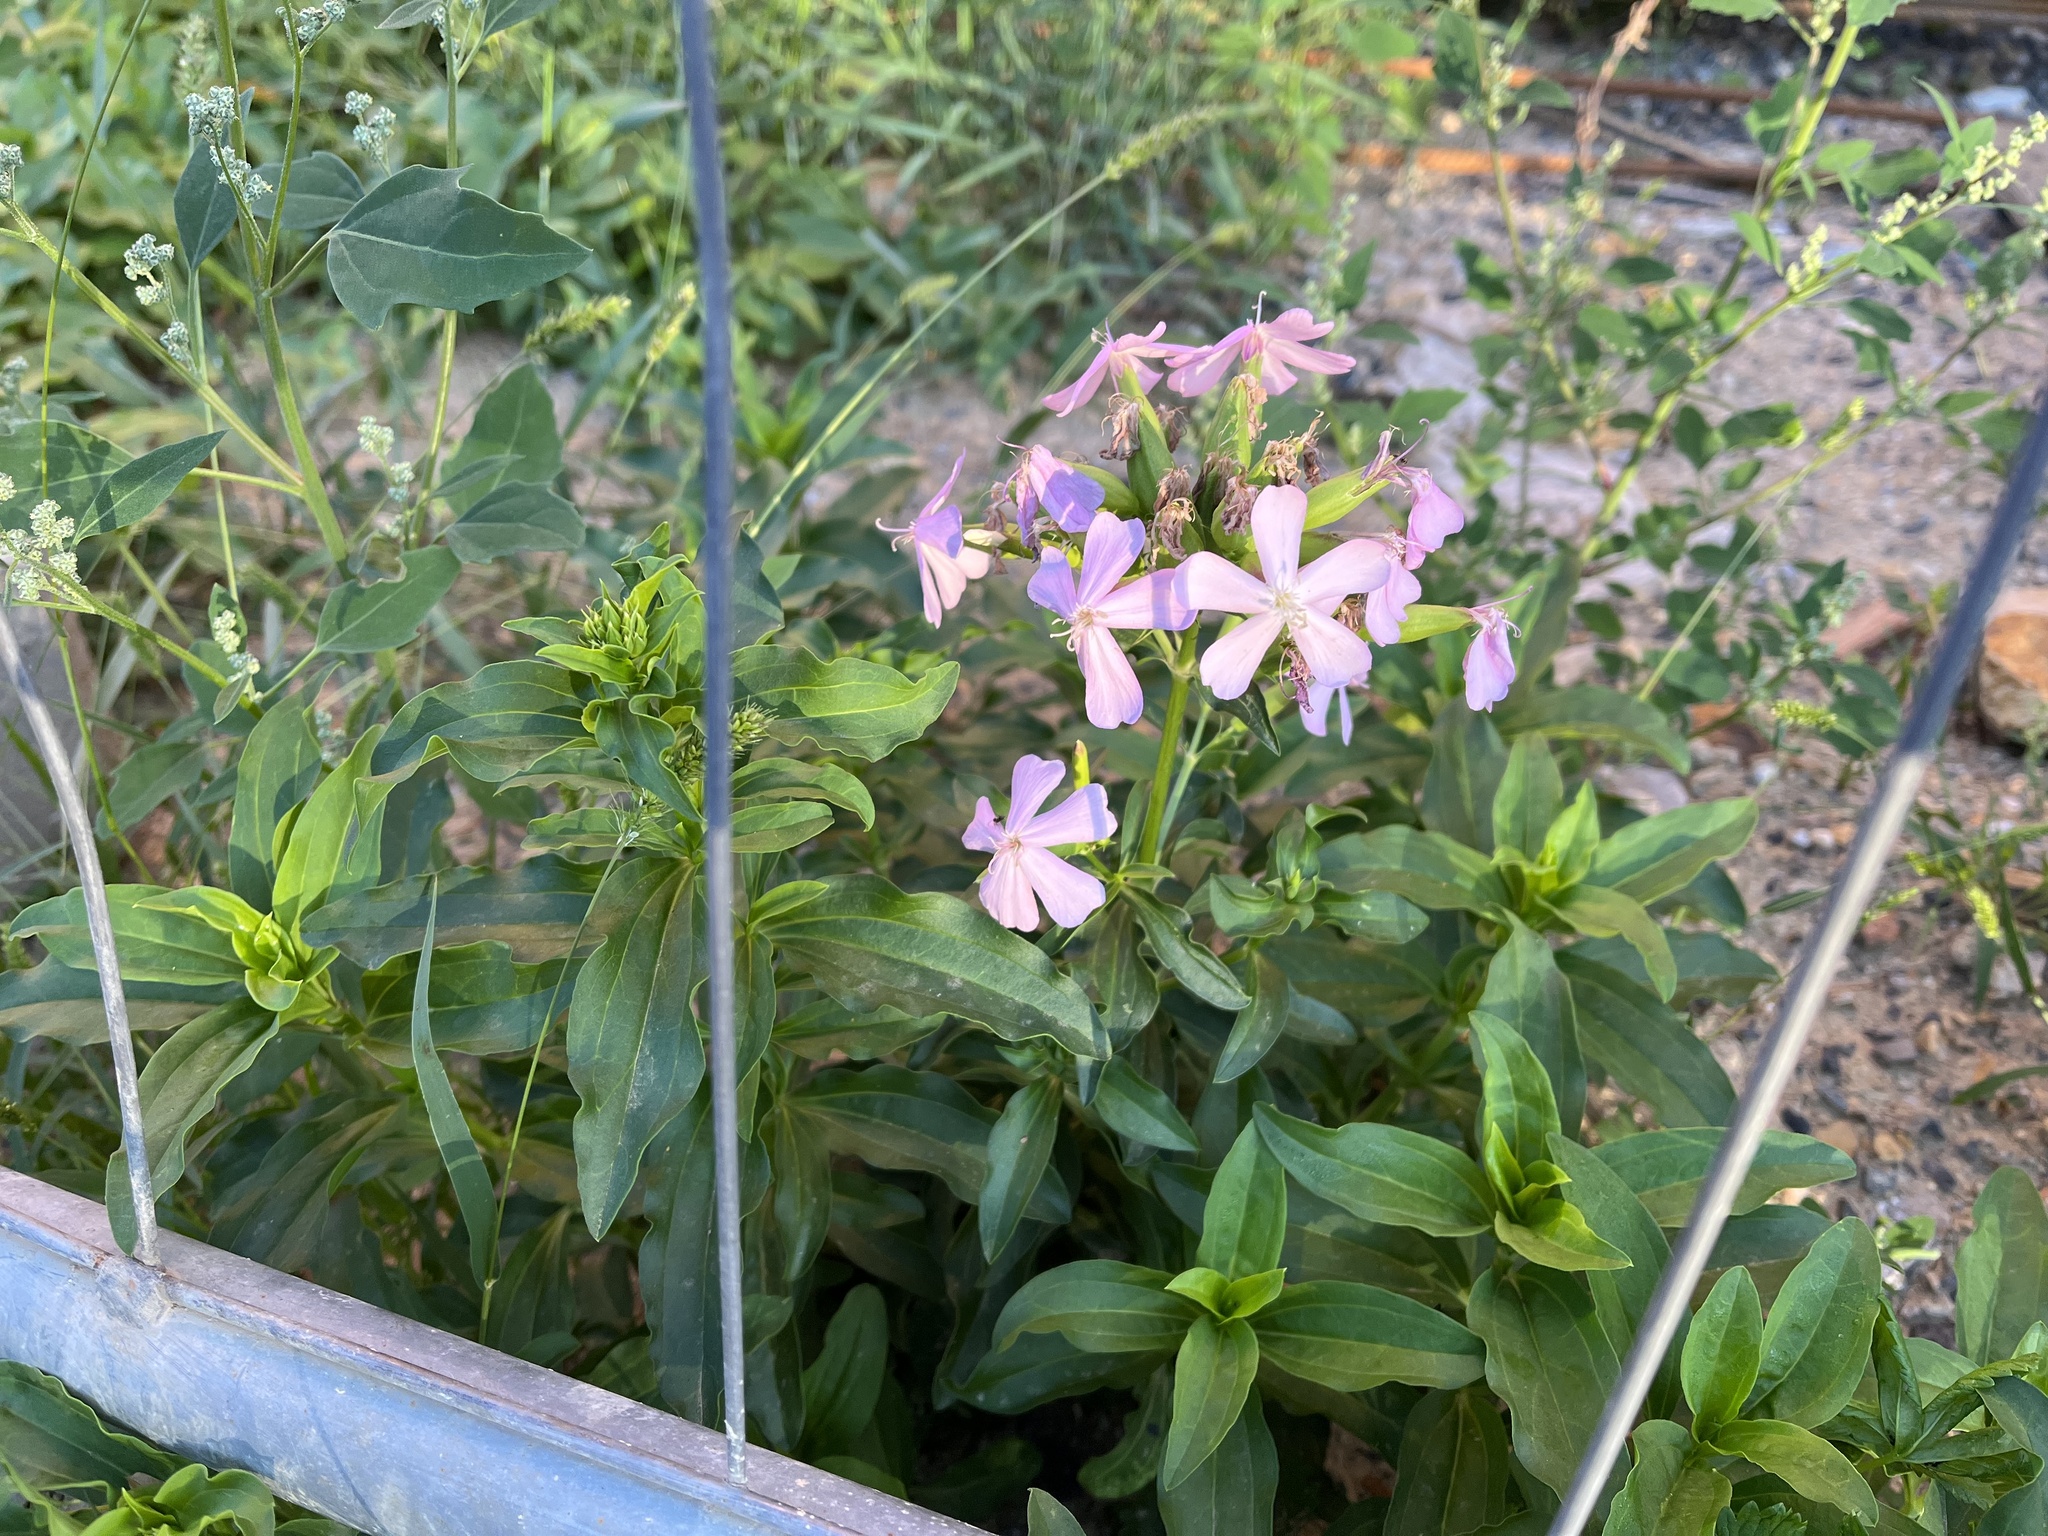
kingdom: Plantae
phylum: Tracheophyta
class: Magnoliopsida
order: Caryophyllales
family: Caryophyllaceae
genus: Saponaria
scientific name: Saponaria officinalis
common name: Soapwort
